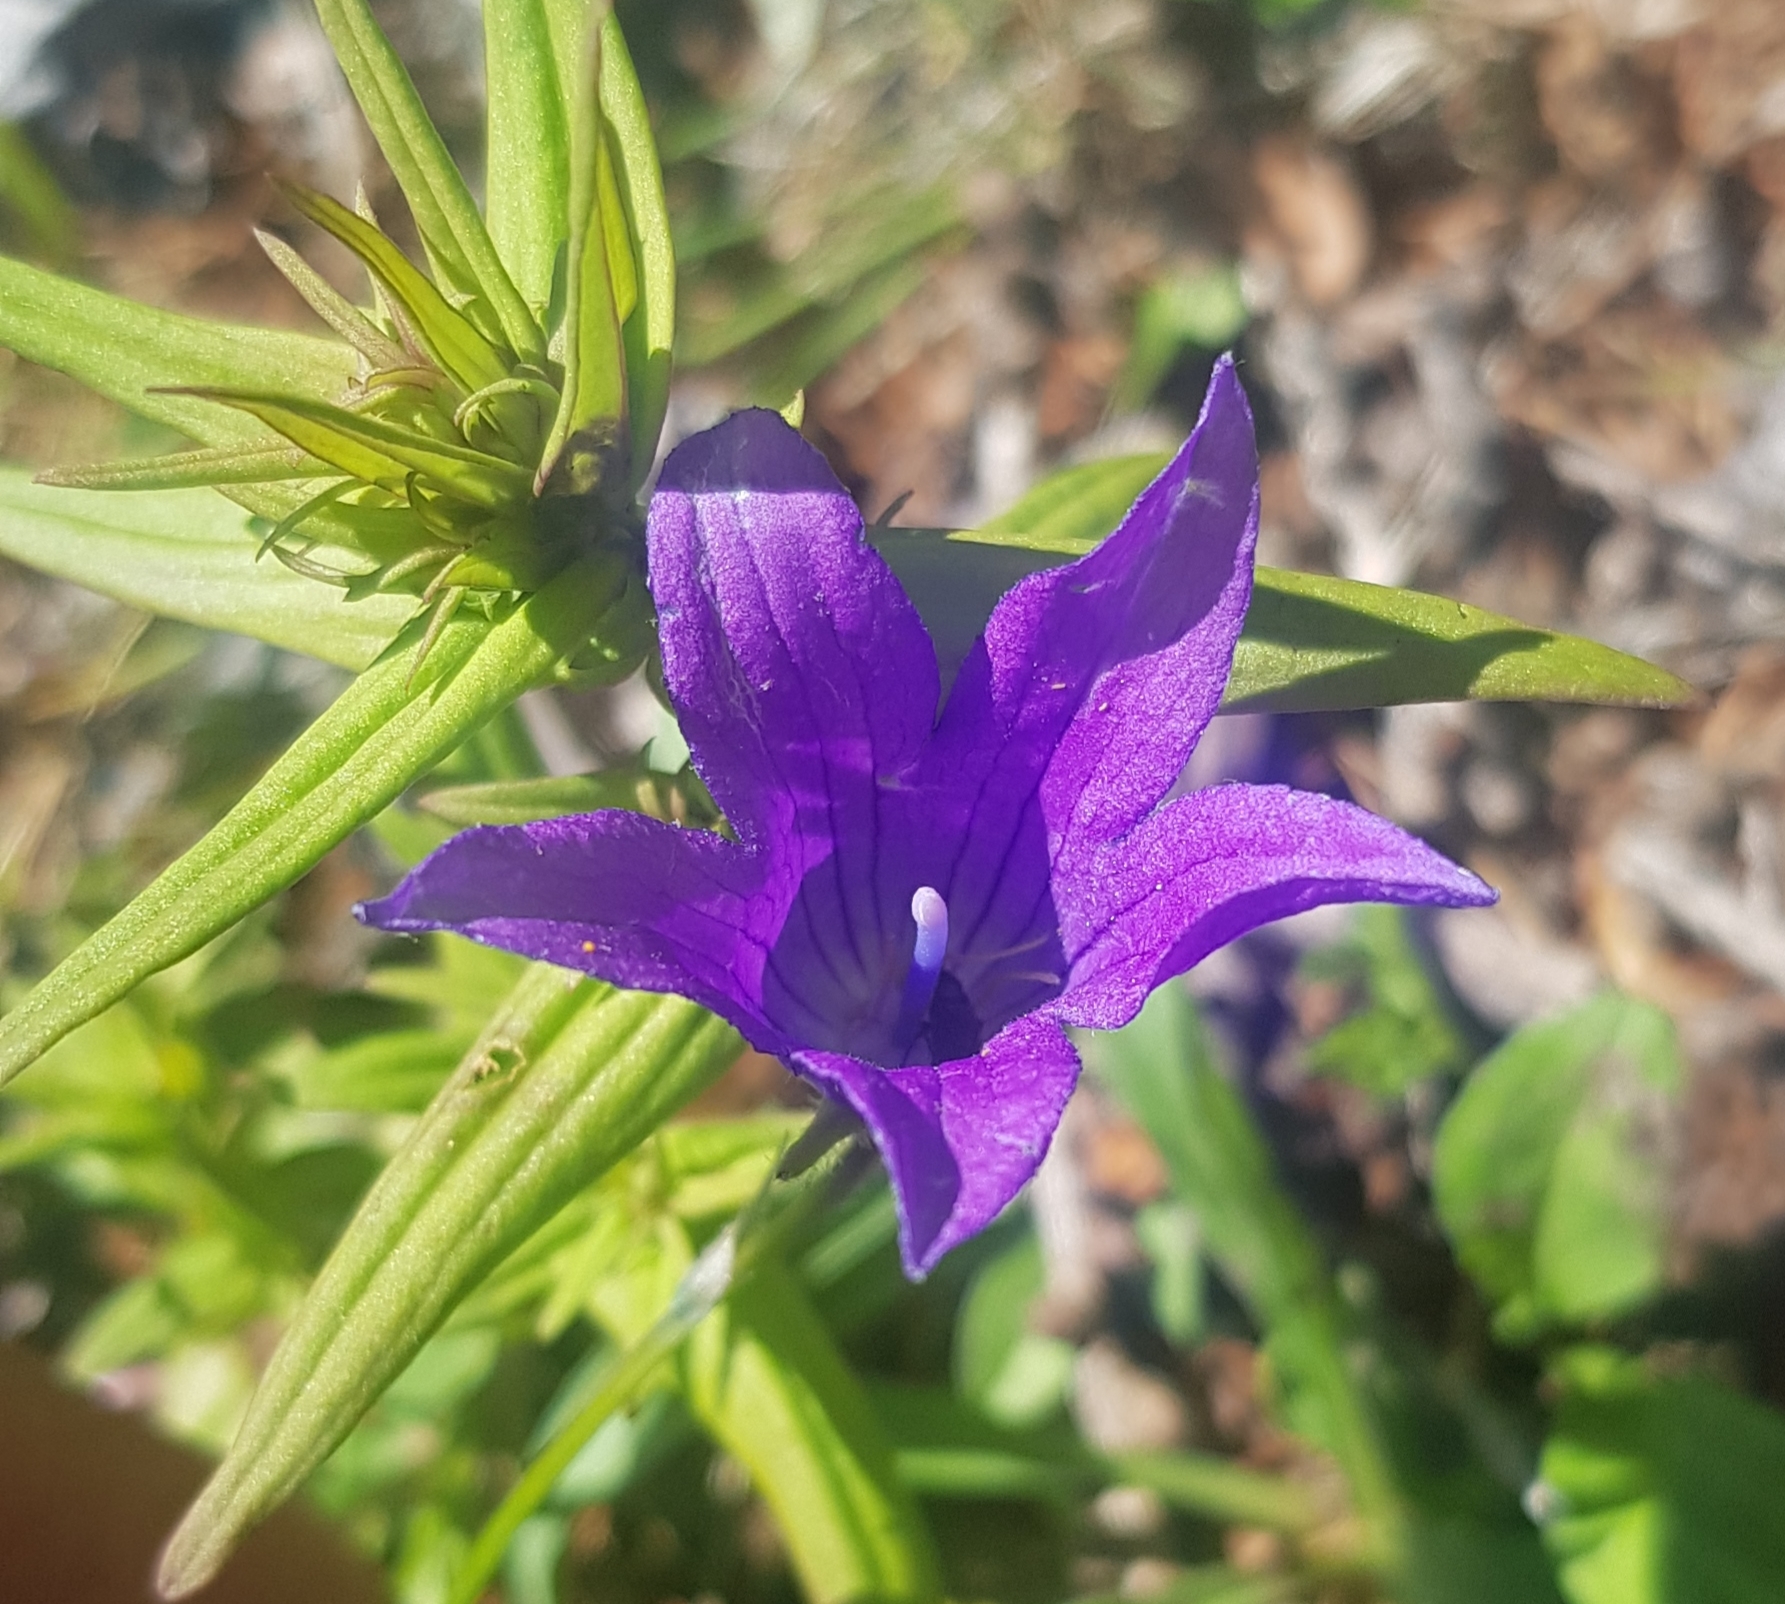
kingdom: Plantae
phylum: Tracheophyta
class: Magnoliopsida
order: Asterales
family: Campanulaceae
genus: Campanula
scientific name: Campanula stevenii
